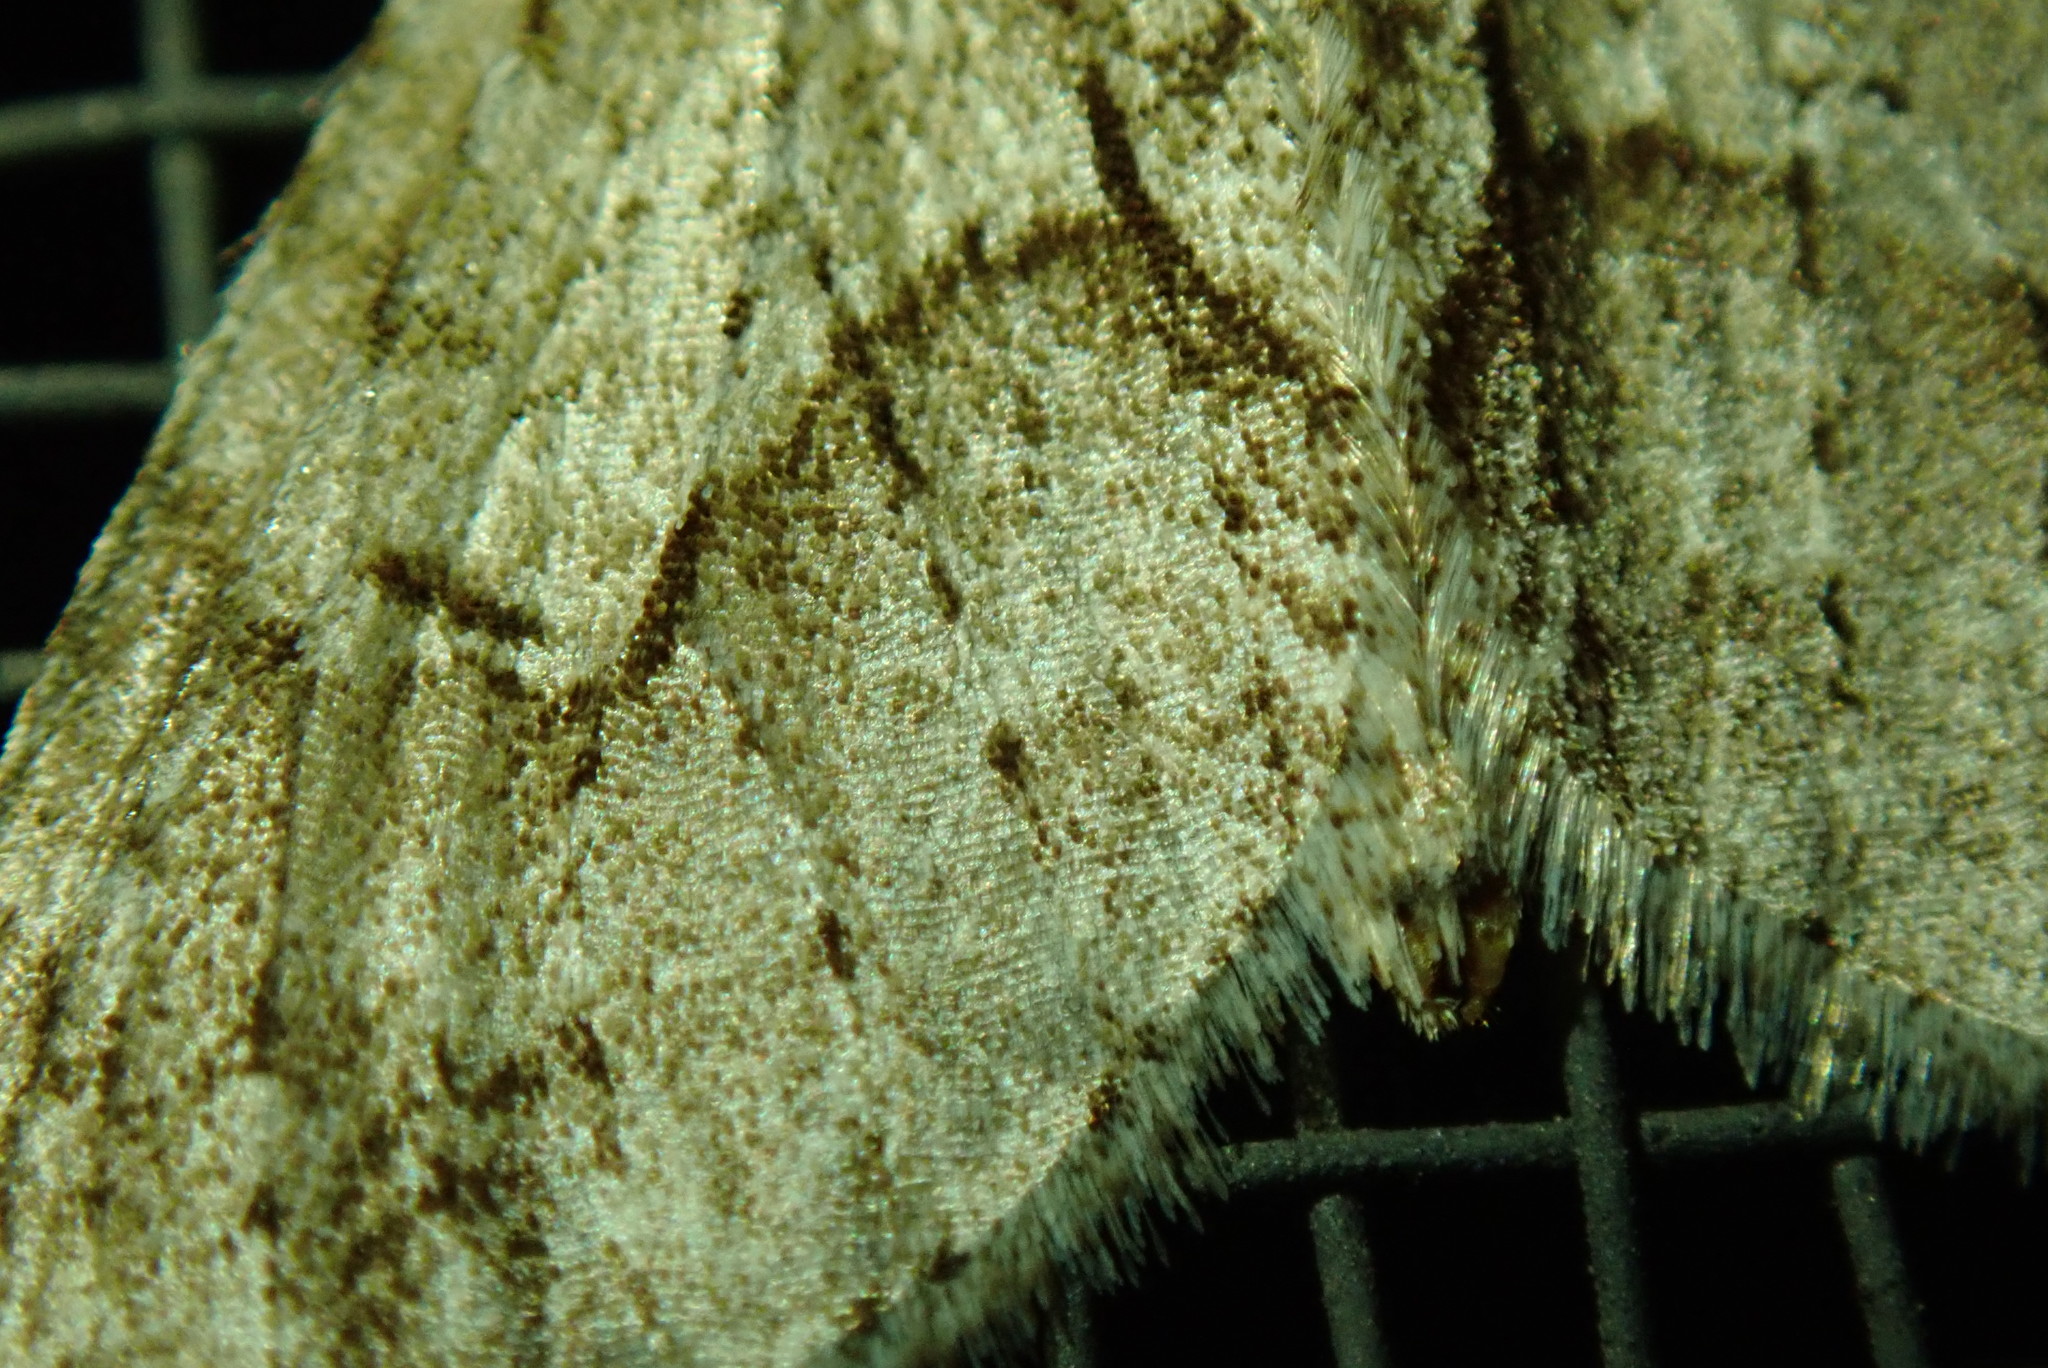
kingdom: Animalia
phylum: Arthropoda
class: Insecta
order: Lepidoptera
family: Geometridae
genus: Cladara
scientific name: Cladara limitaria
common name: Mottled gray carpet
